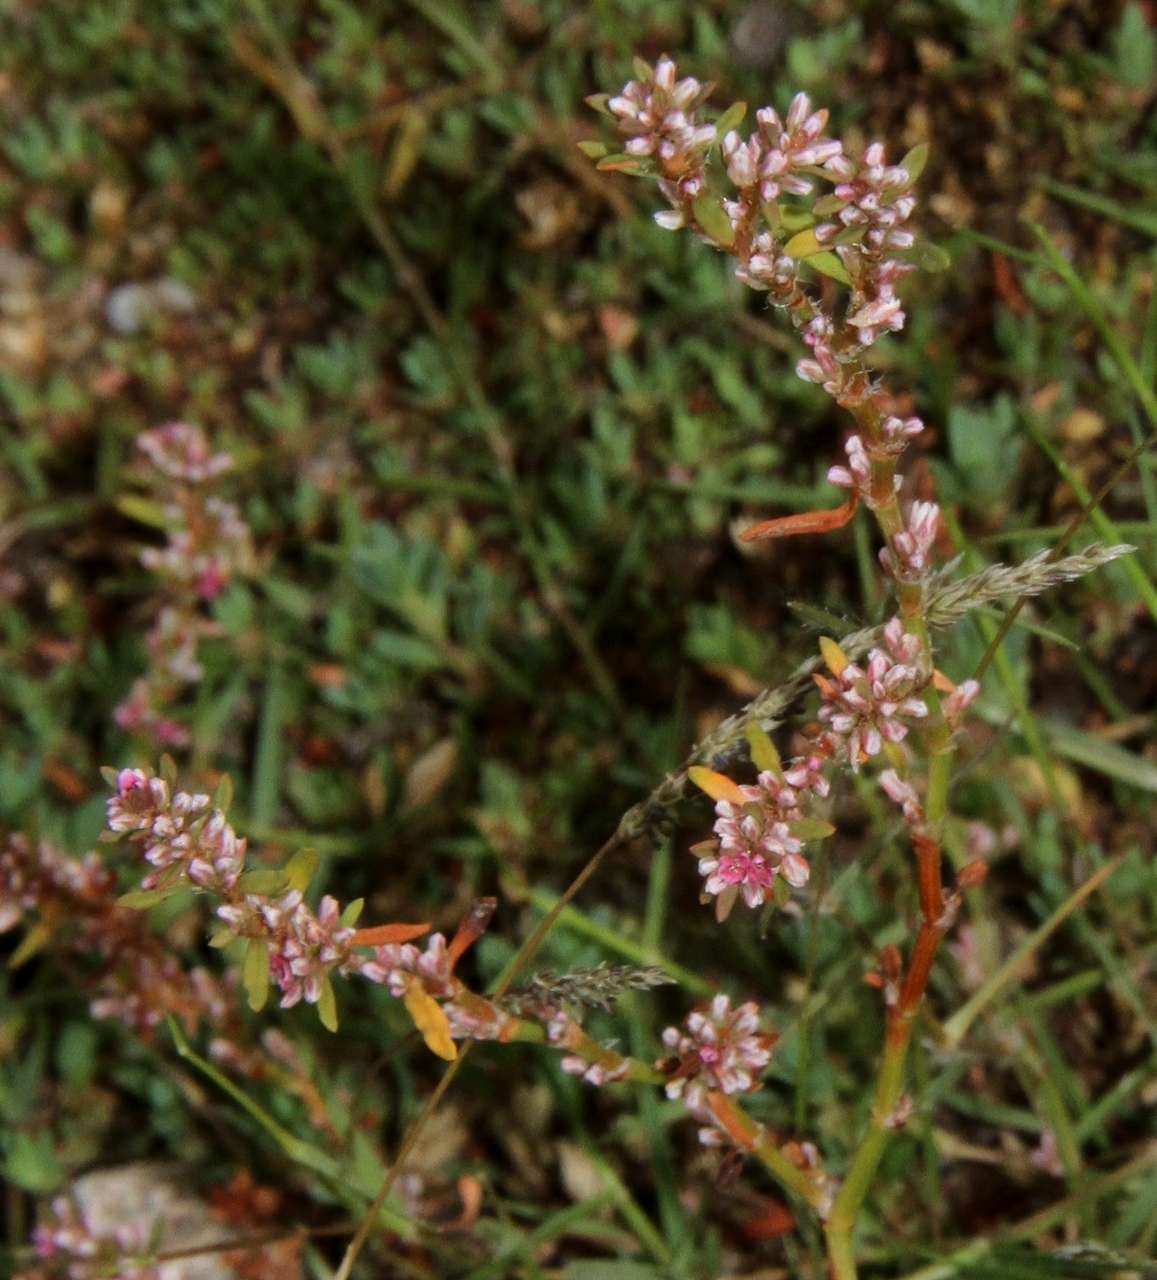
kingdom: Plantae
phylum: Tracheophyta
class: Magnoliopsida
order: Caryophyllales
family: Polygonaceae
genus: Polygonum
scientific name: Polygonum plebeium
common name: Common knotweed
